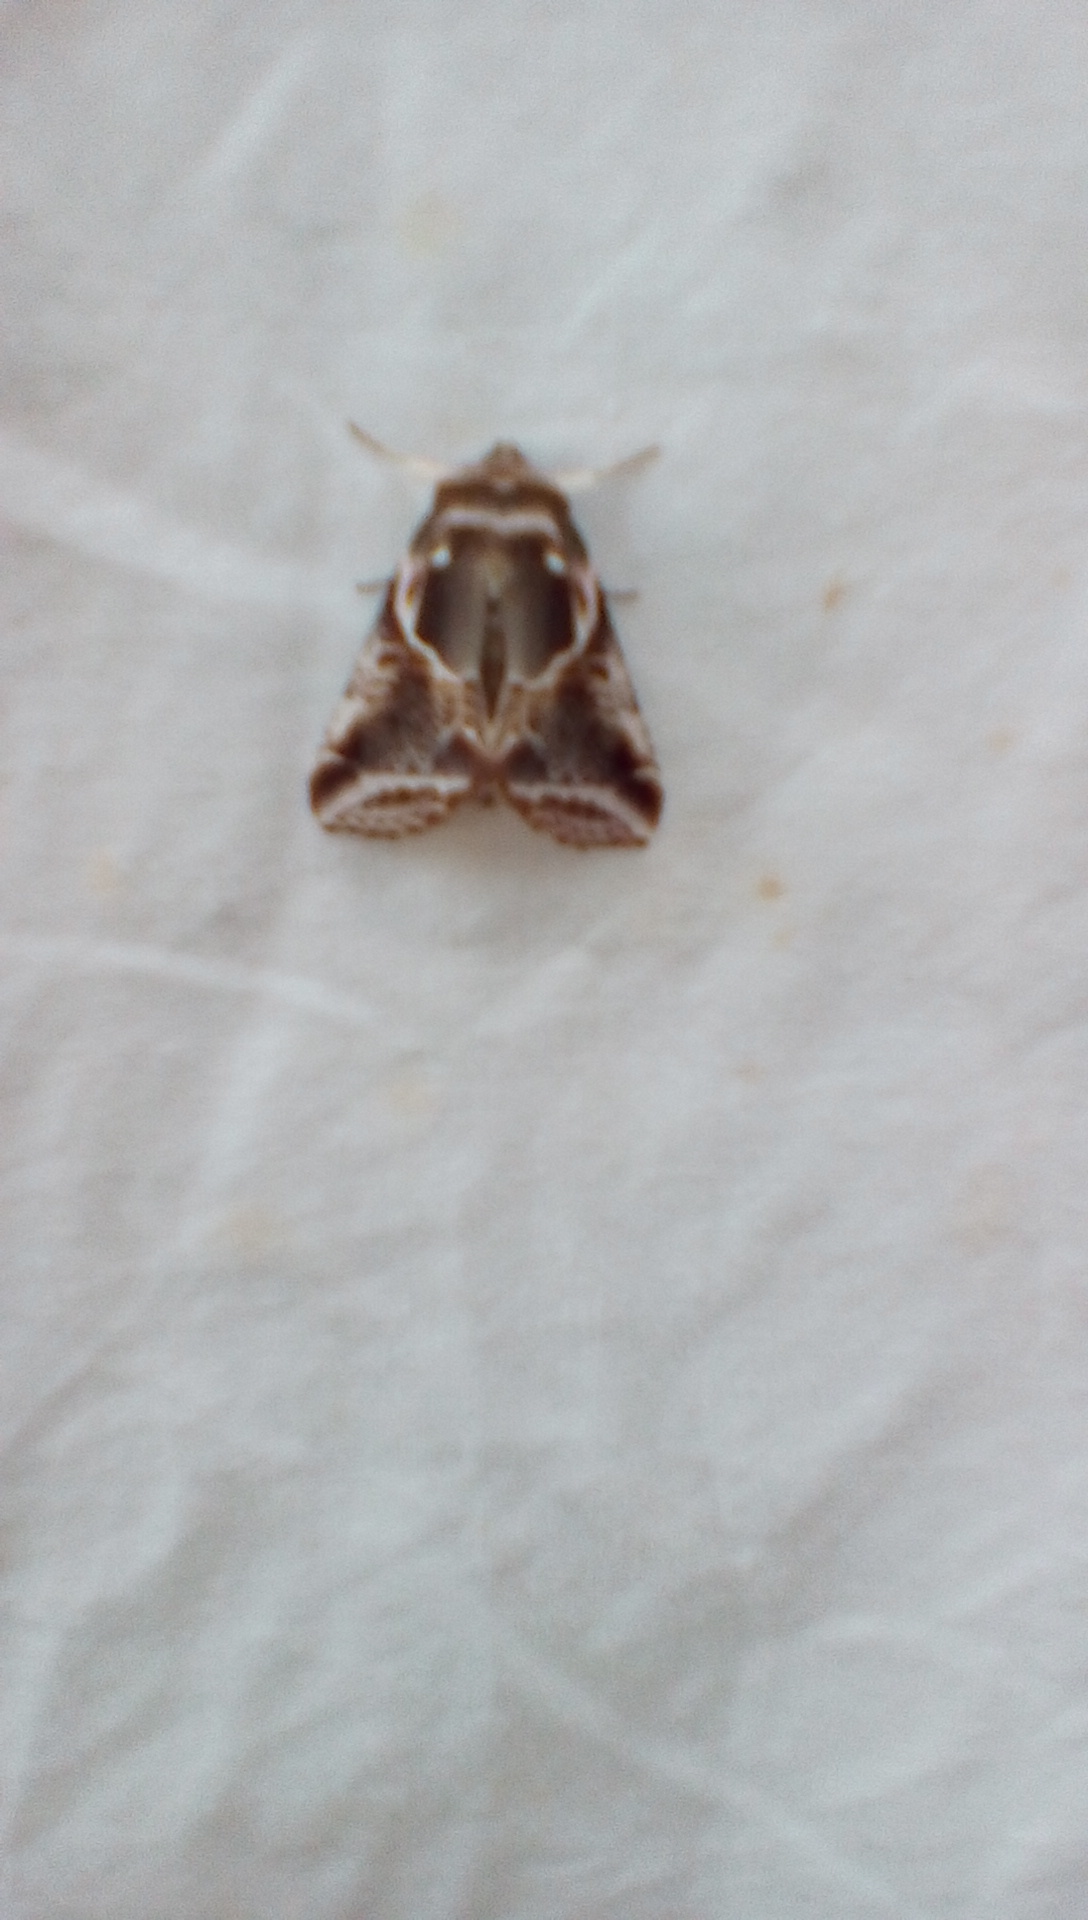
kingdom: Animalia
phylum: Arthropoda
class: Insecta
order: Lepidoptera
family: Drepanidae
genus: Habrosyne
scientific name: Habrosyne scripta
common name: Lettered habrosyne moth
